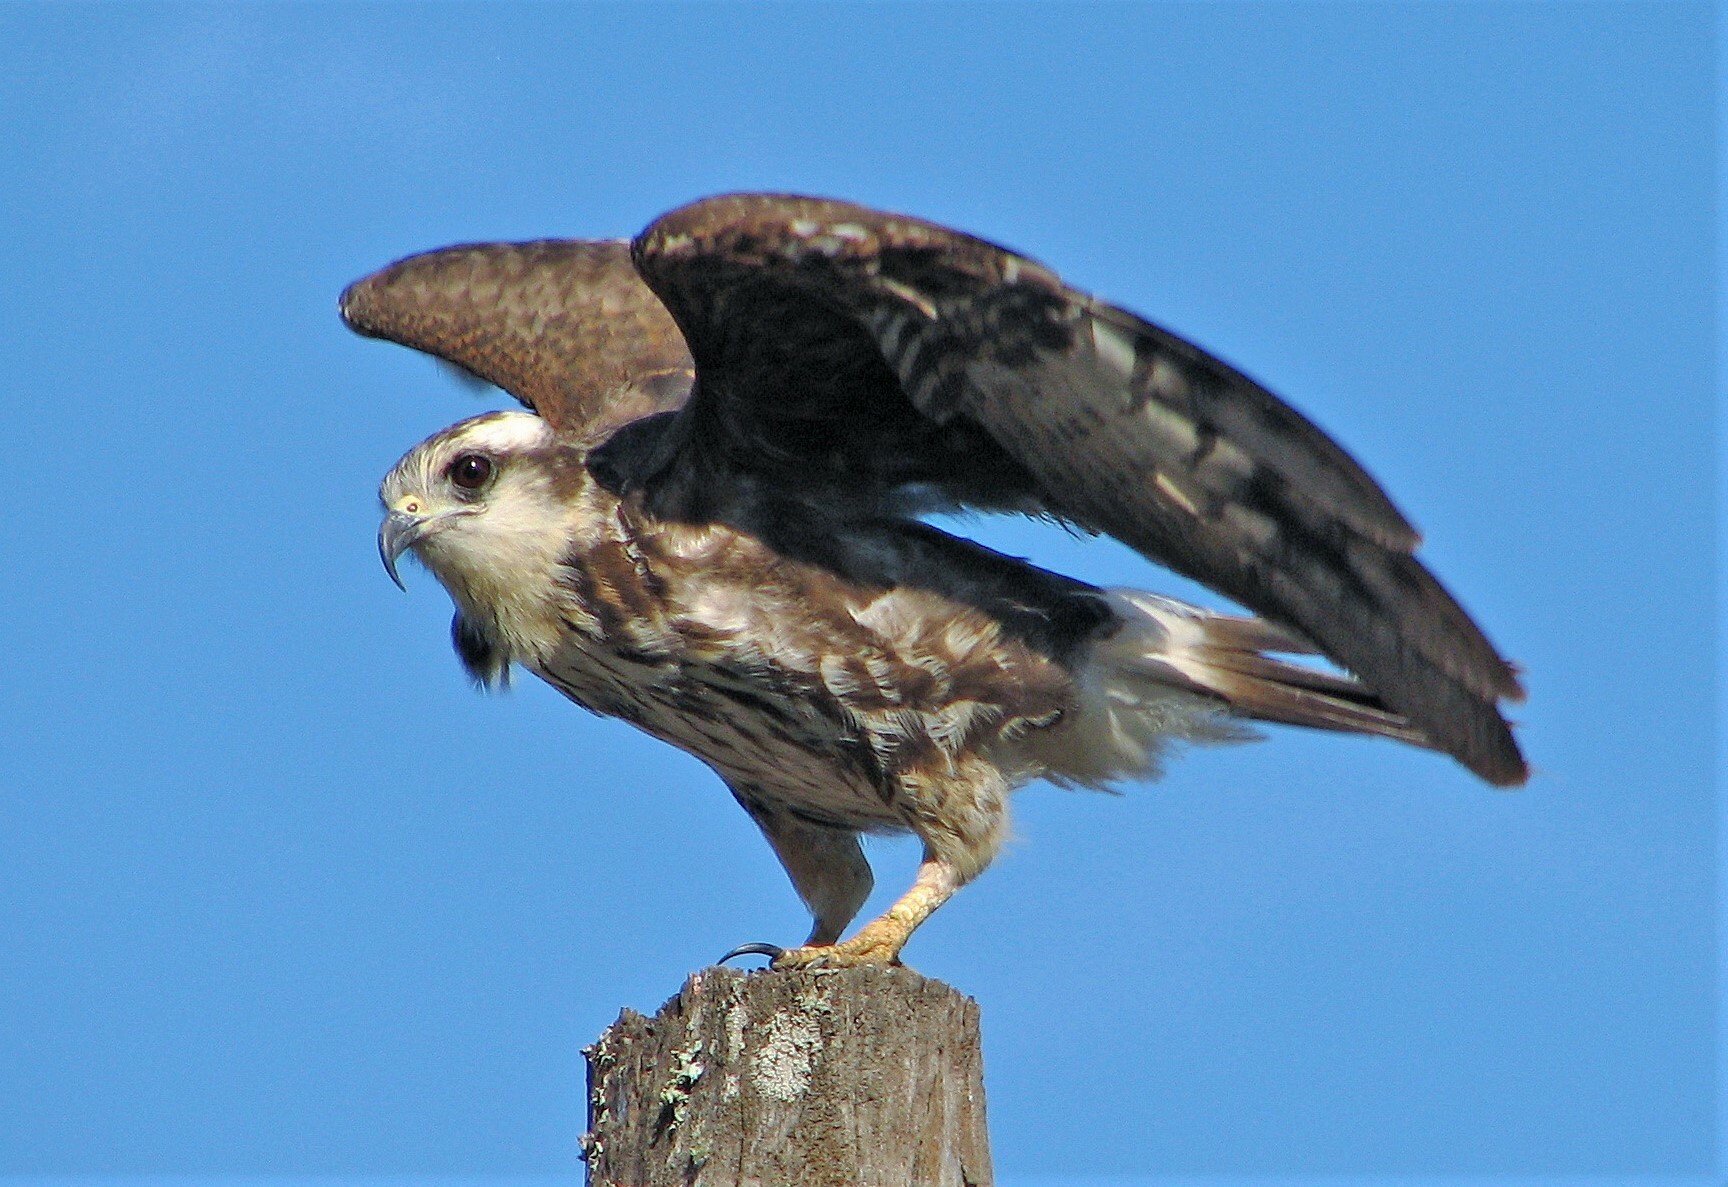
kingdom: Animalia
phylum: Chordata
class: Aves
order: Accipitriformes
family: Accipitridae
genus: Rostrhamus
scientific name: Rostrhamus sociabilis
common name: Snail kite
